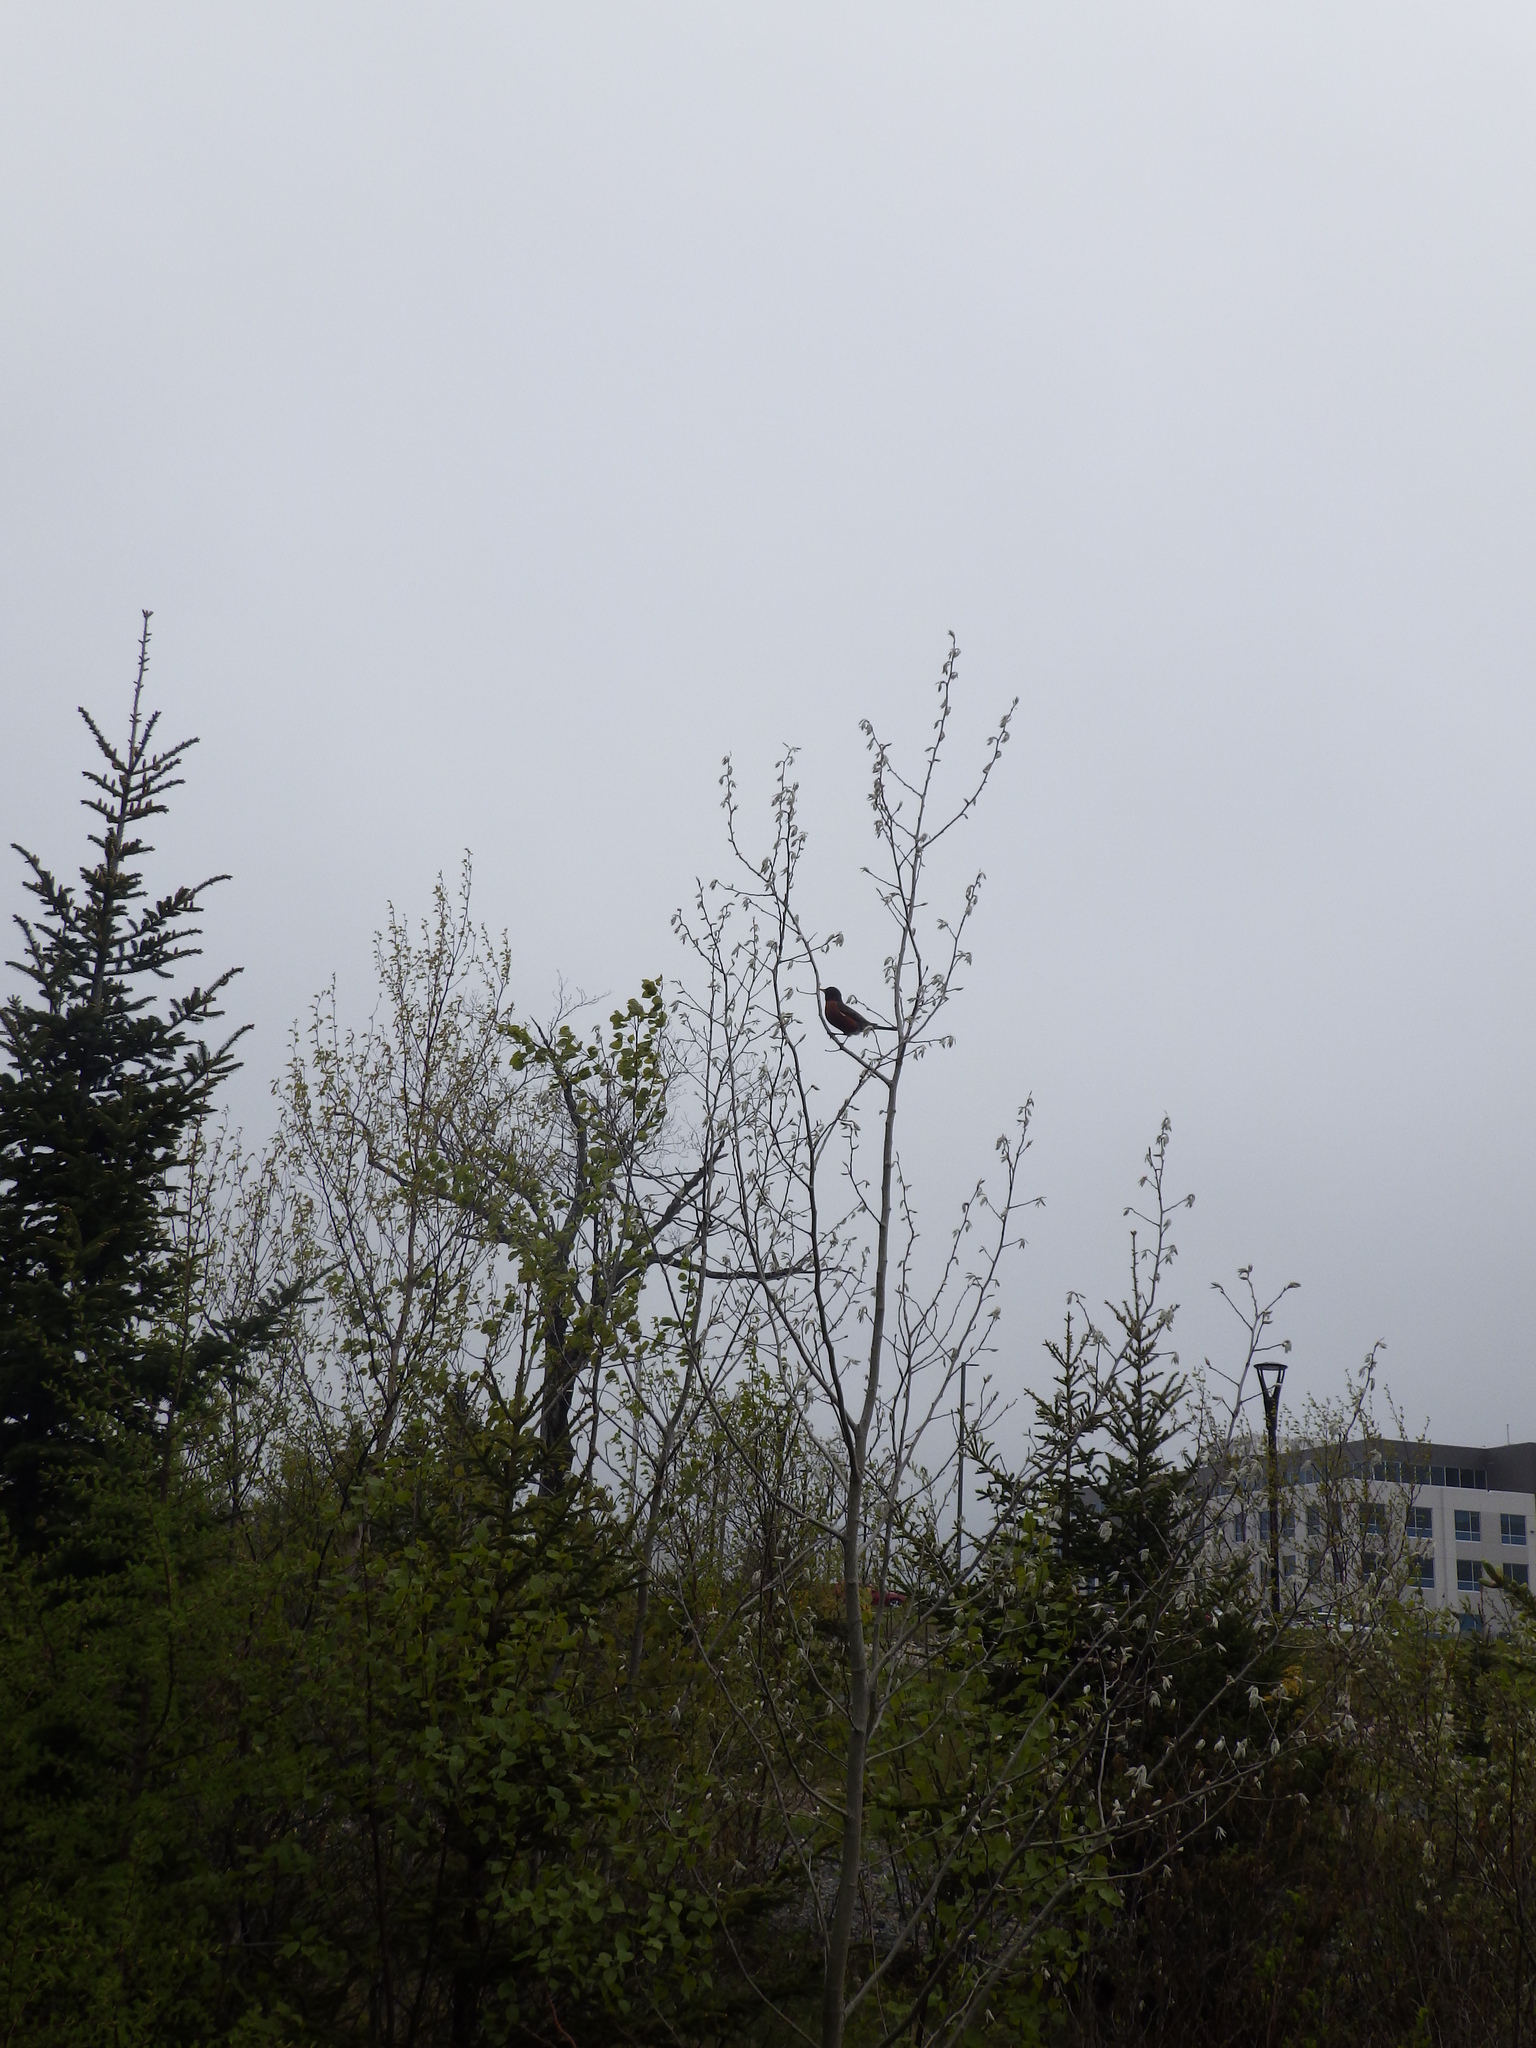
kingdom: Animalia
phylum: Chordata
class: Aves
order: Passeriformes
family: Turdidae
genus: Turdus
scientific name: Turdus migratorius
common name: American robin
